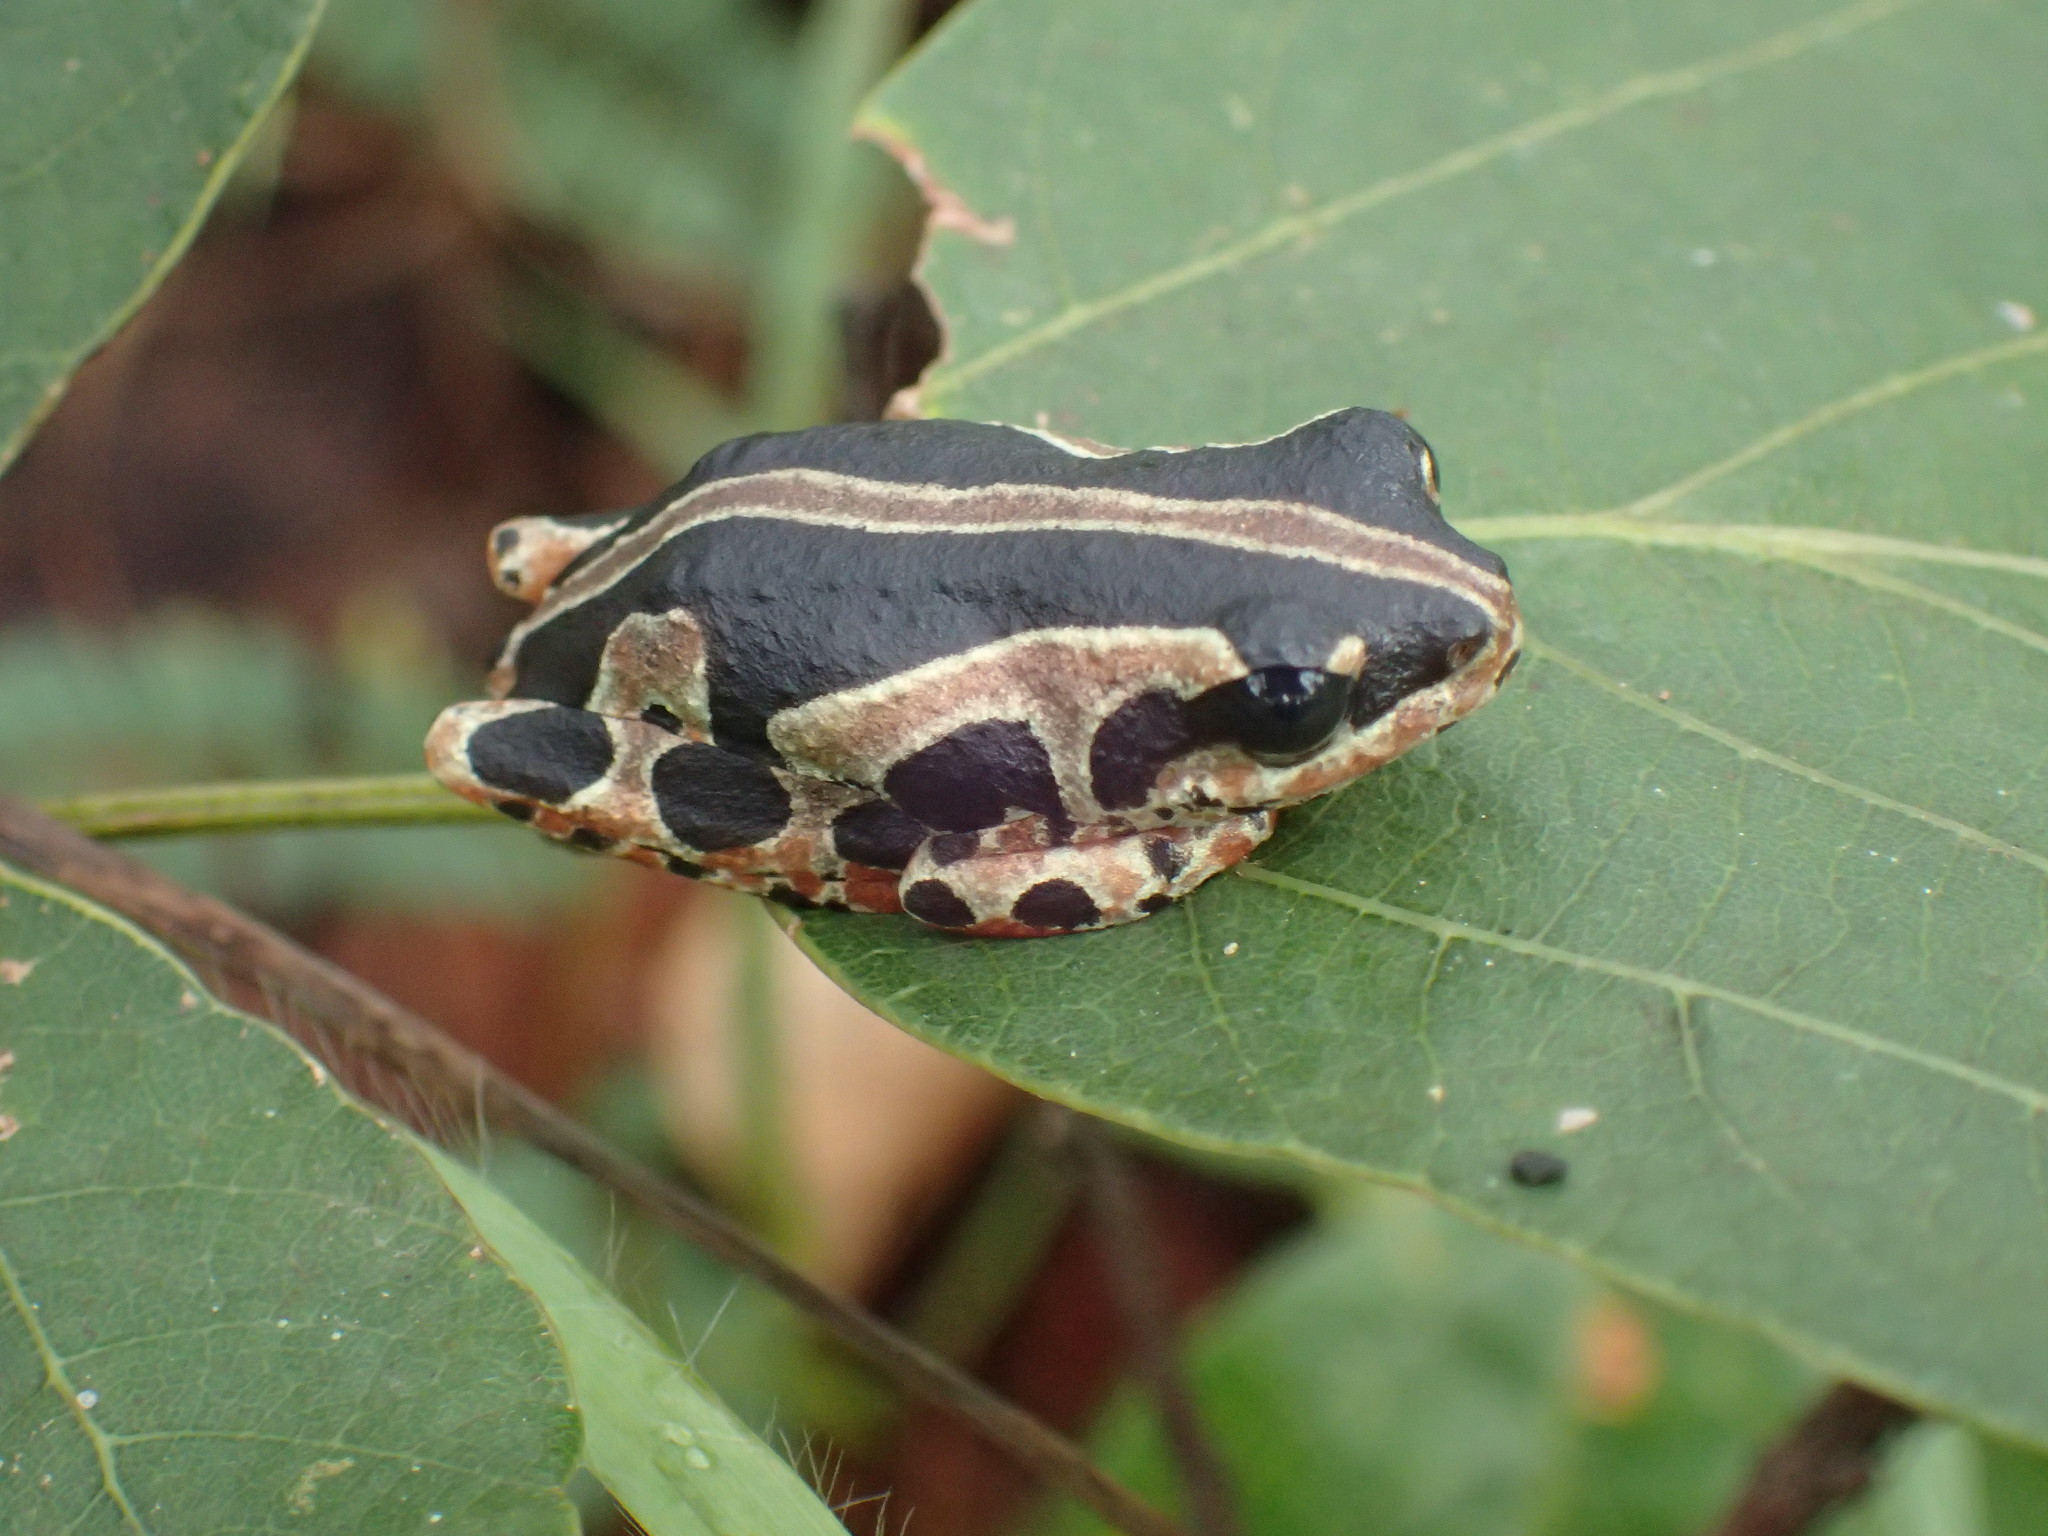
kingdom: Animalia
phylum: Chordata
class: Amphibia
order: Anura
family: Hyperoliidae
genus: Hyperolius
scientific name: Hyperolius viridiflavus
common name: Common reed frog
